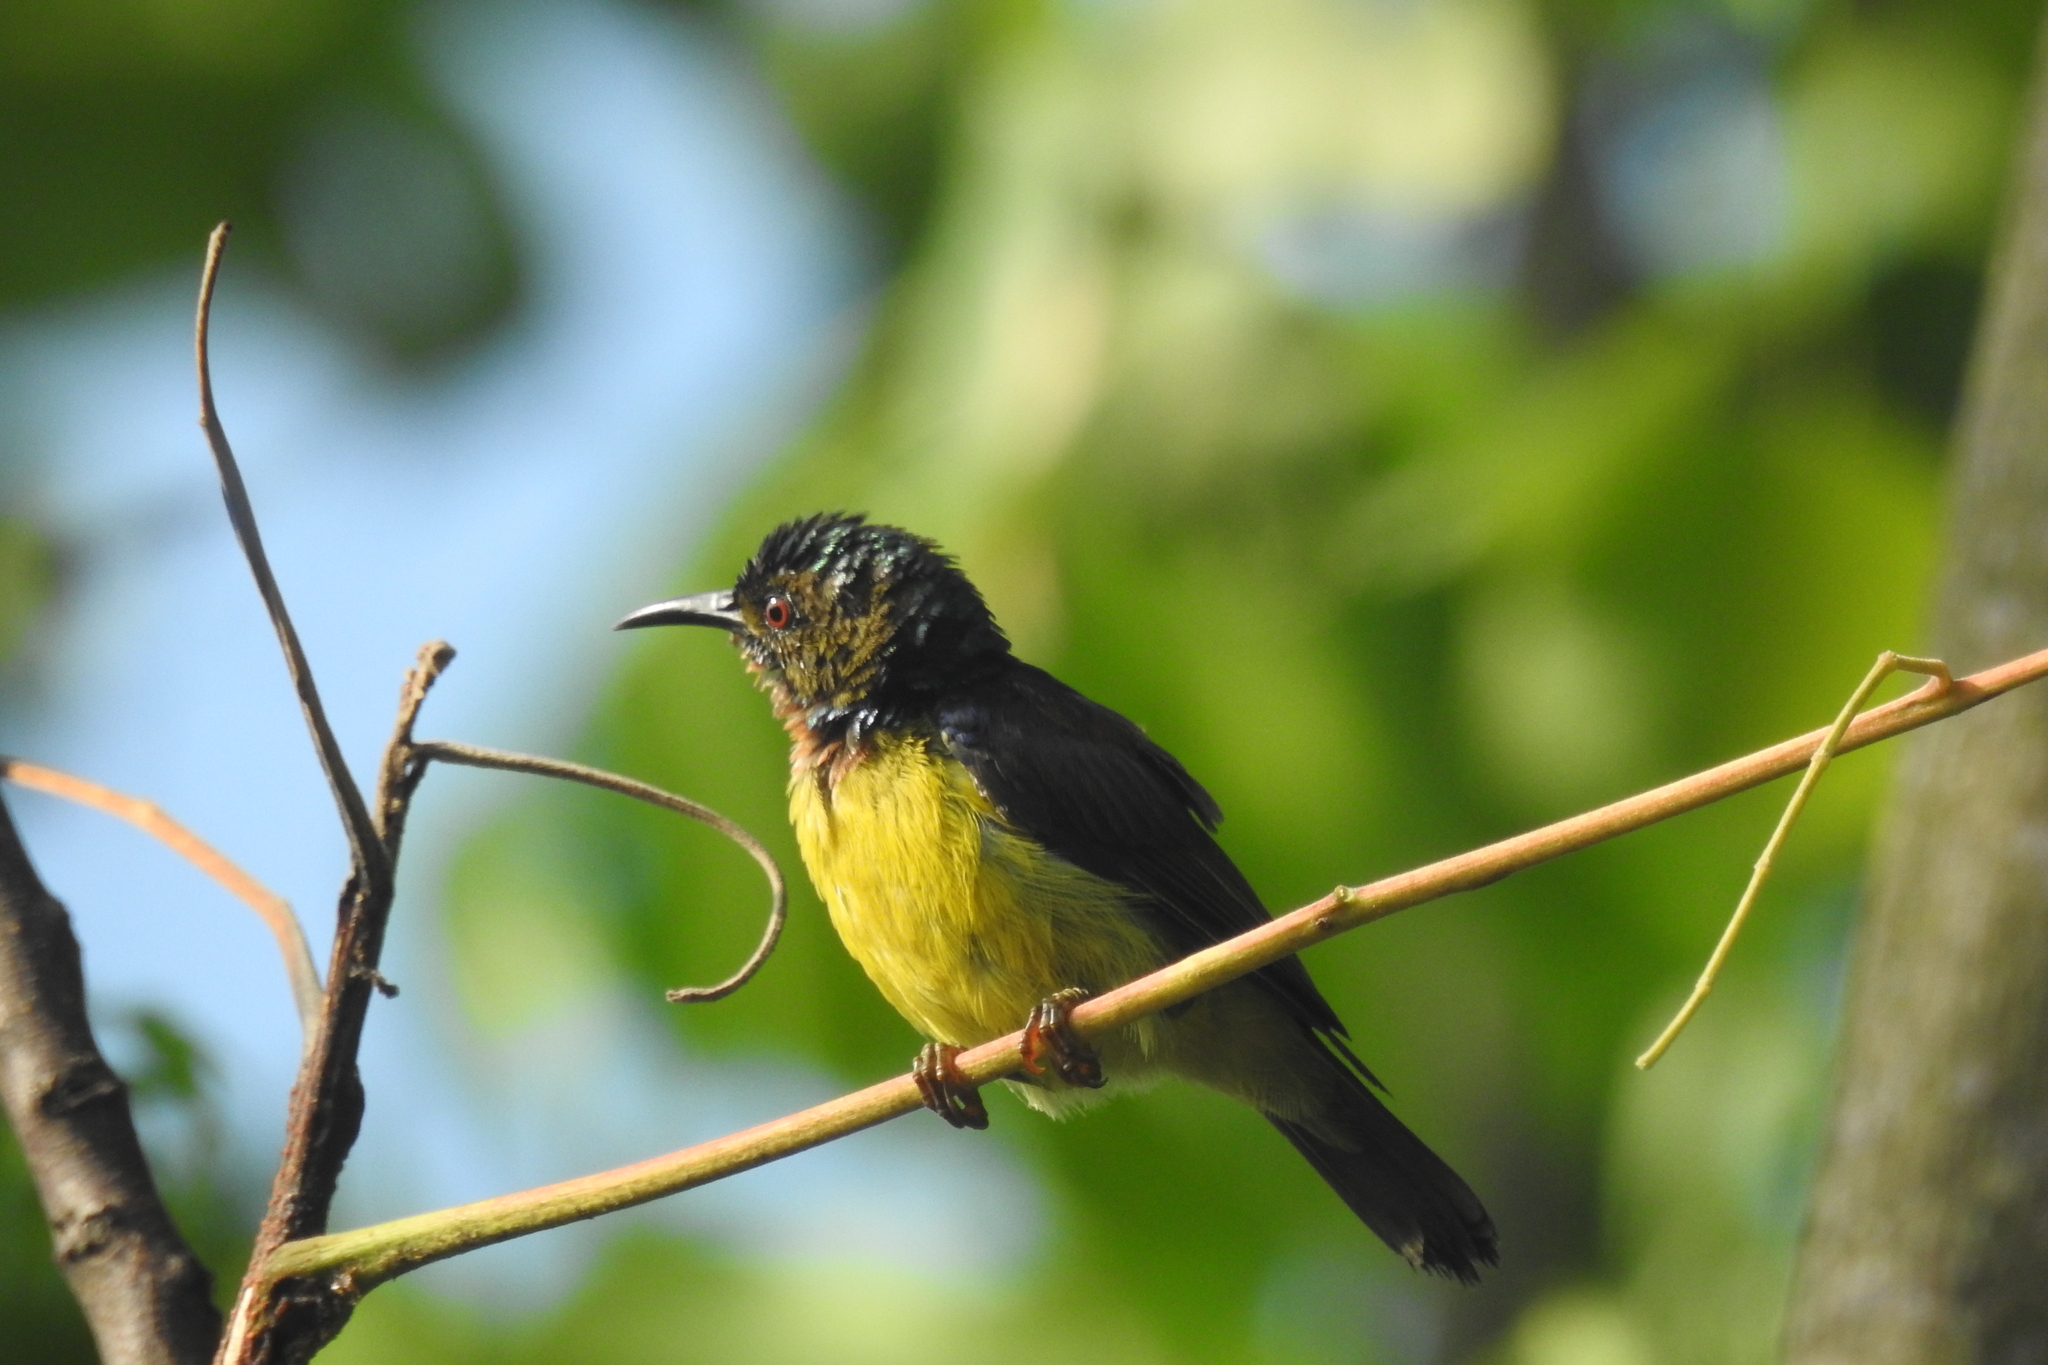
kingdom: Animalia
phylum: Chordata
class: Aves
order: Passeriformes
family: Nectariniidae
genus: Anthreptes
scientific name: Anthreptes malacensis
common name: Brown-throated sunbird
